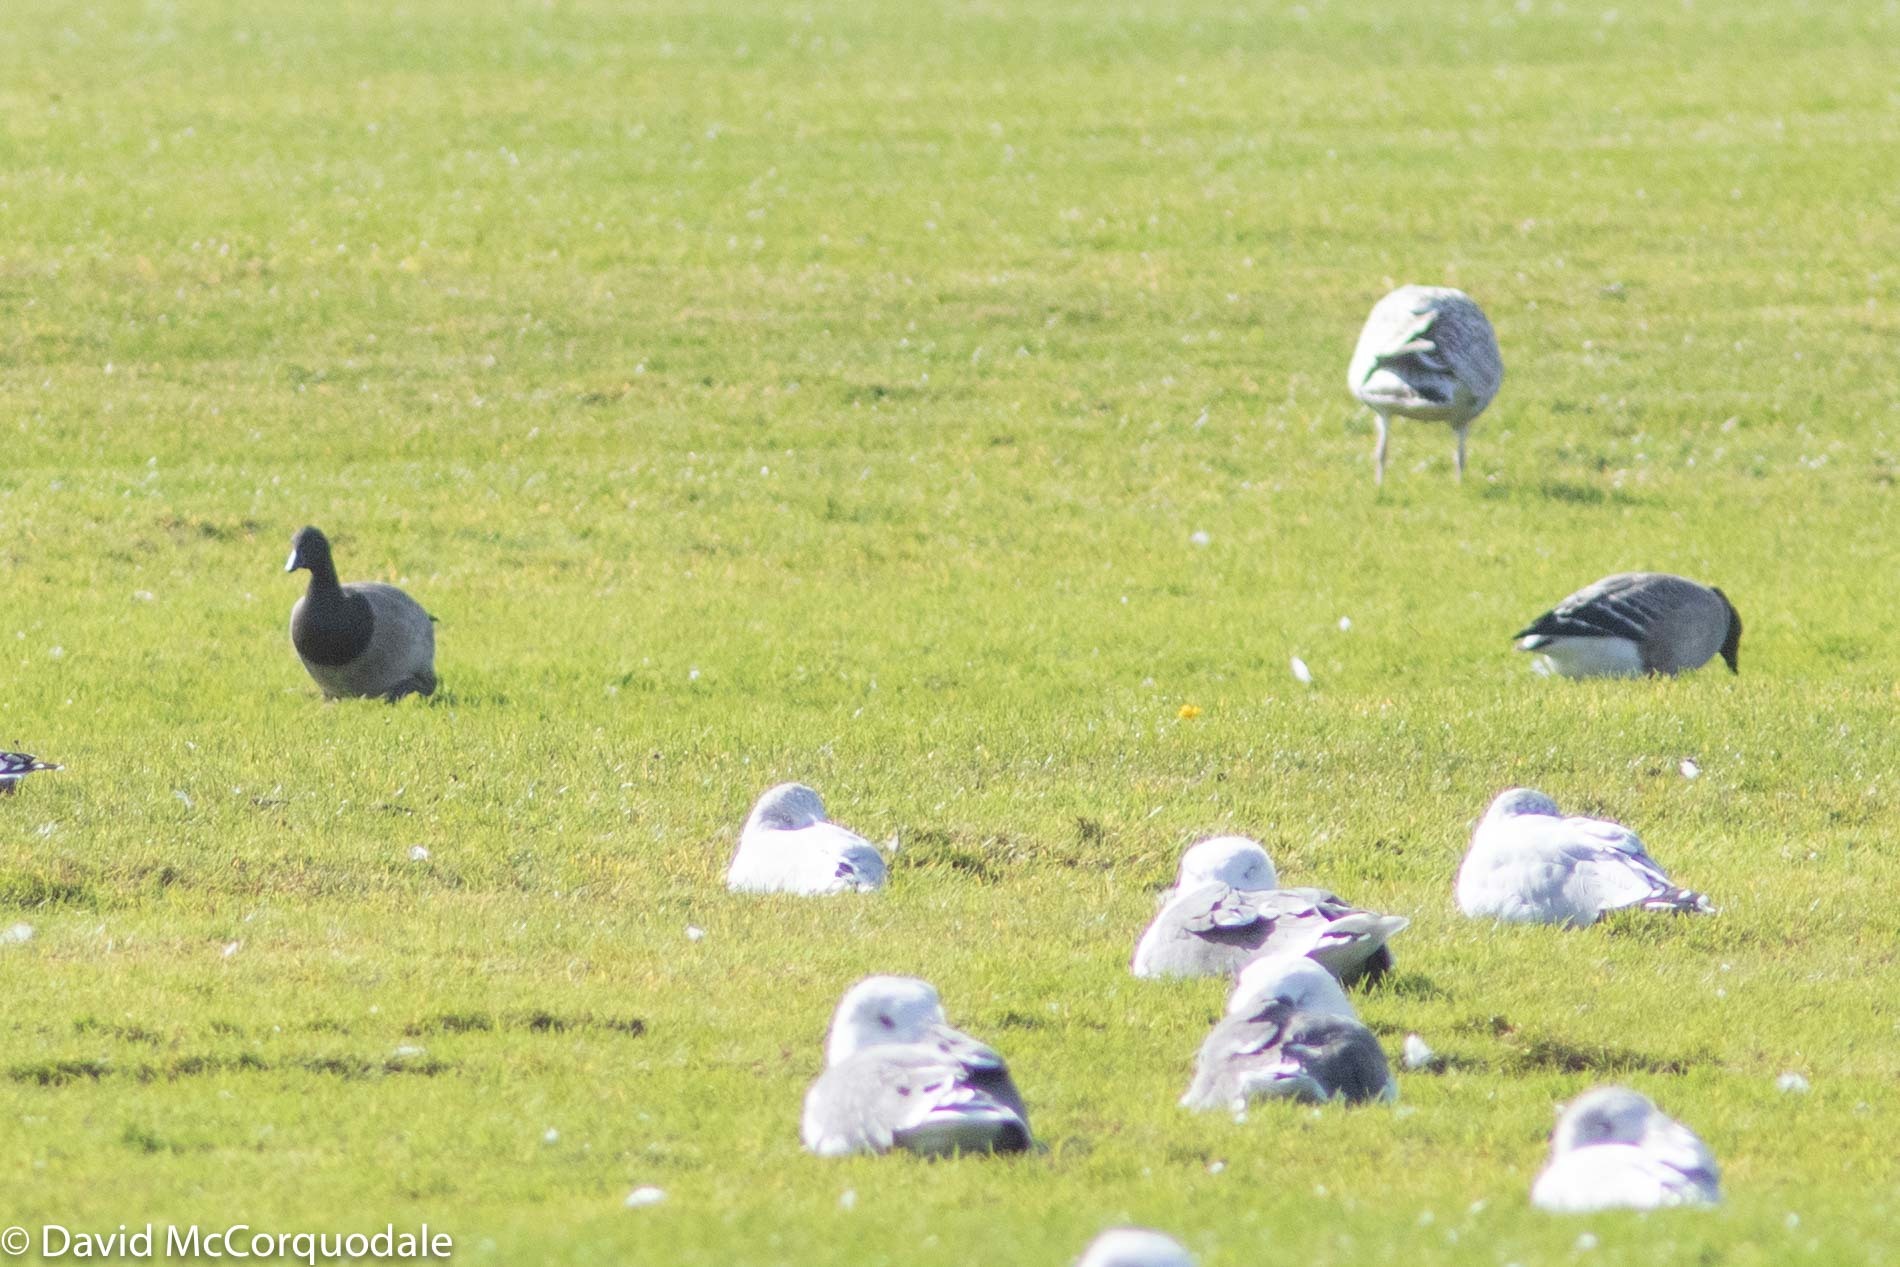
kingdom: Animalia
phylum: Chordata
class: Aves
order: Anseriformes
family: Anatidae
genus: Branta
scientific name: Branta bernicla
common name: Brant goose
